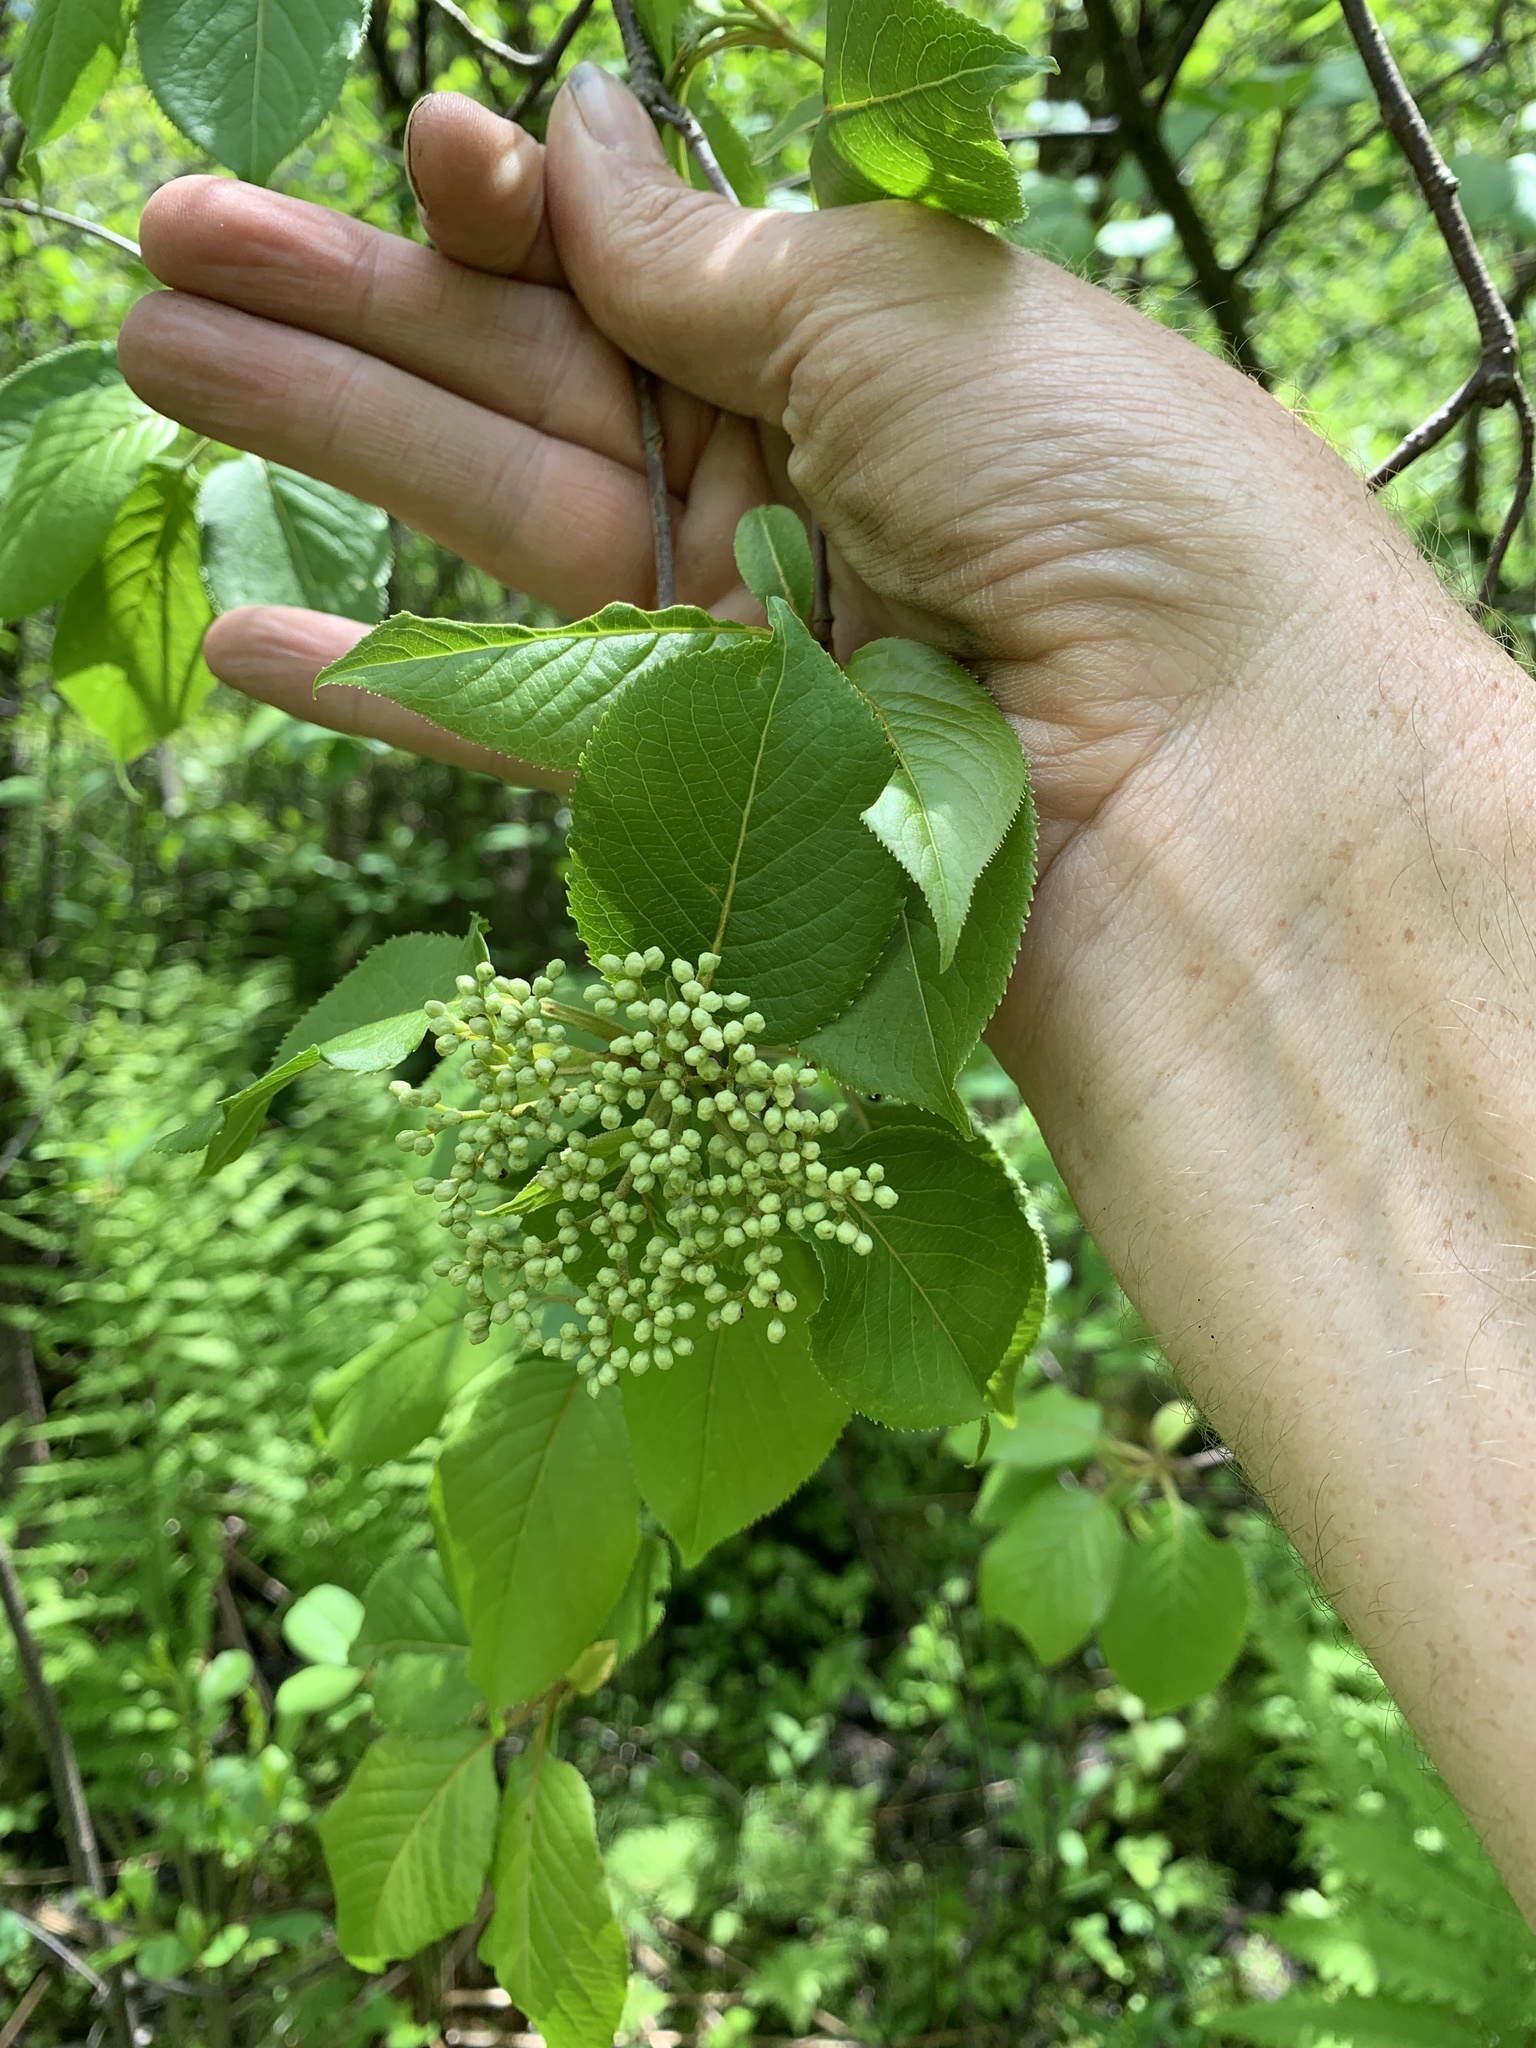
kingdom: Plantae
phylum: Tracheophyta
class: Magnoliopsida
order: Dipsacales
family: Viburnaceae
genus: Viburnum
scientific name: Viburnum lentago
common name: Black haw
